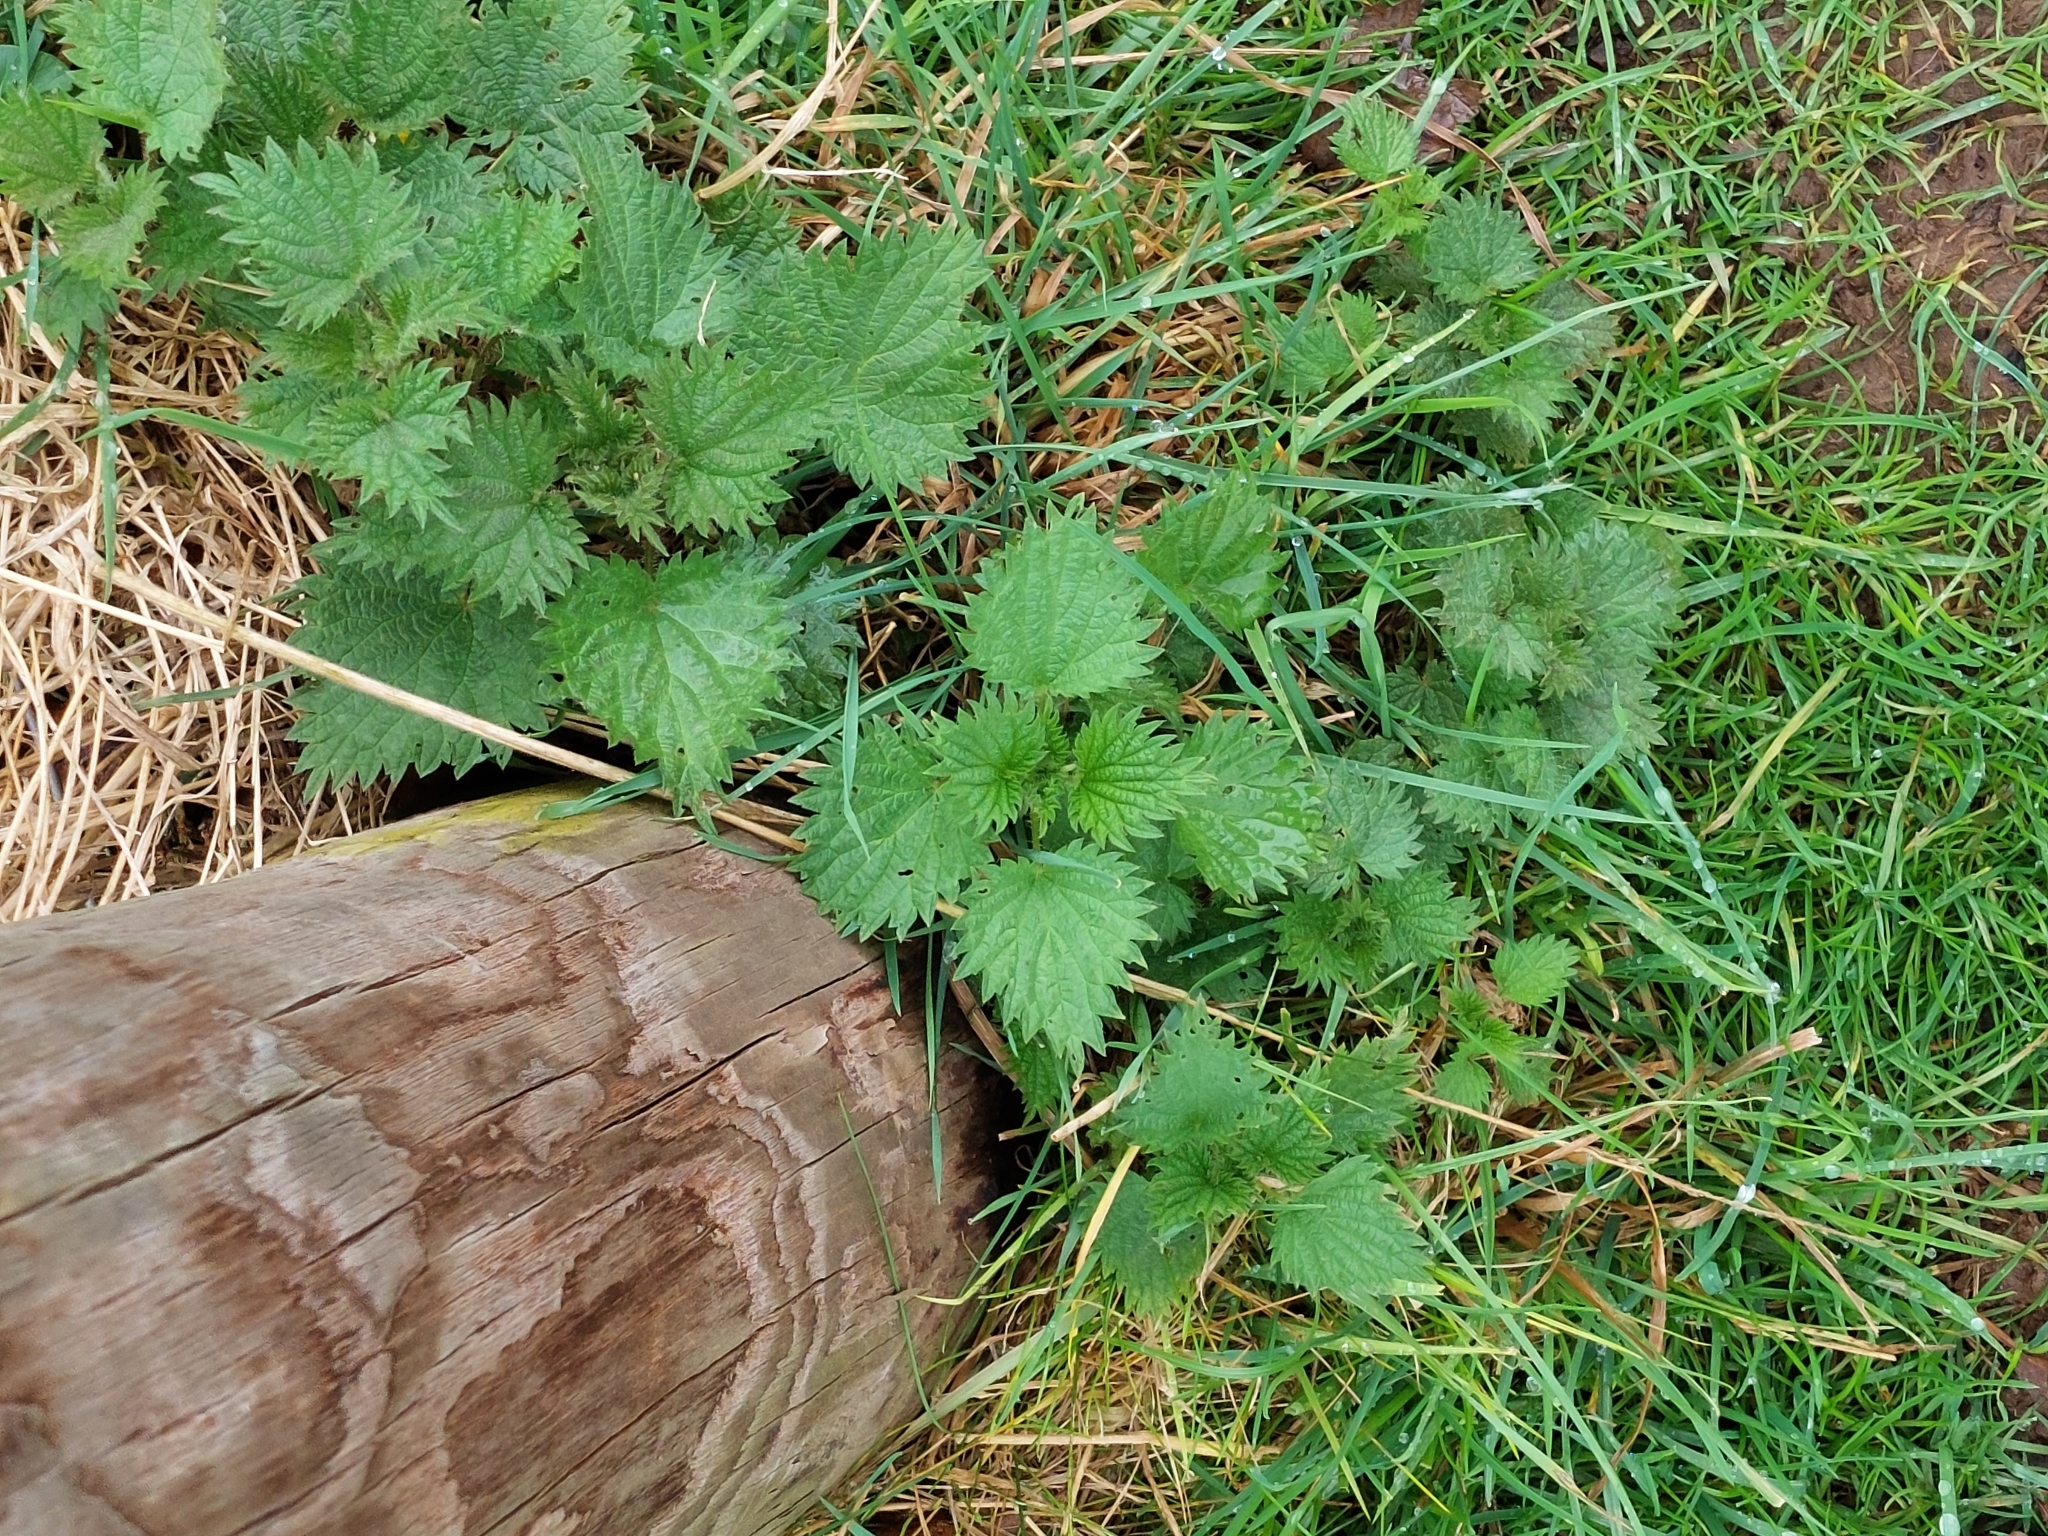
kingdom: Plantae
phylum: Tracheophyta
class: Magnoliopsida
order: Rosales
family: Urticaceae
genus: Urtica
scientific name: Urtica dioica
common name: Common nettle
